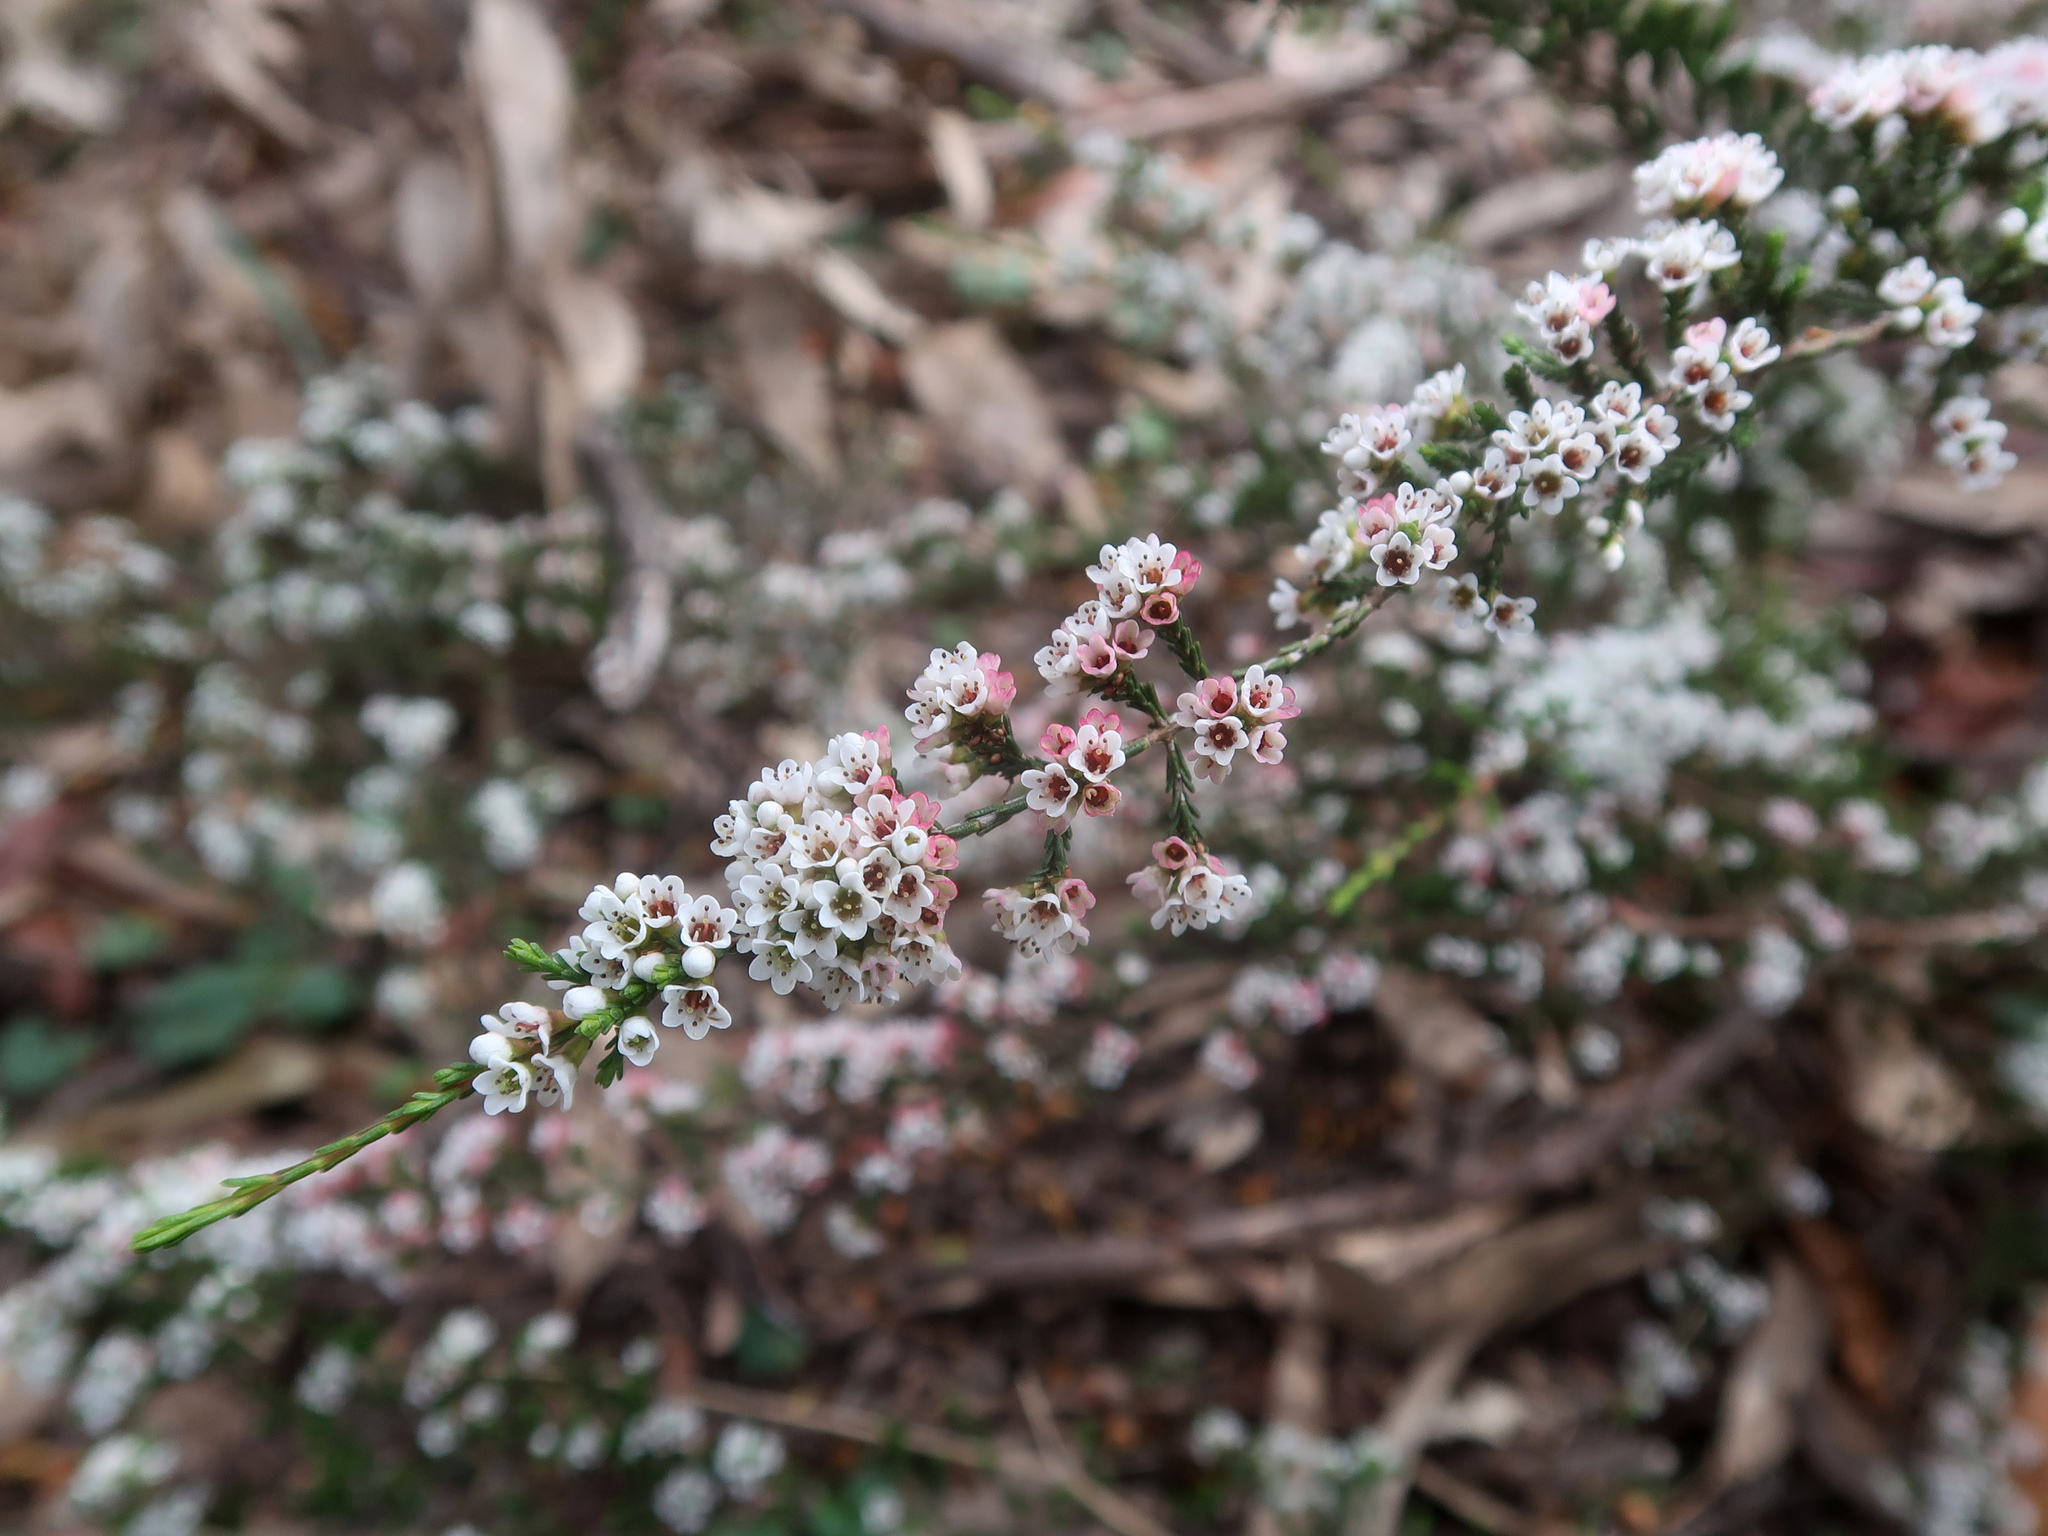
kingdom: Plantae
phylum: Tracheophyta
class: Magnoliopsida
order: Myrtales
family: Myrtaceae
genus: Micromyrtus
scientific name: Micromyrtus ciliata
